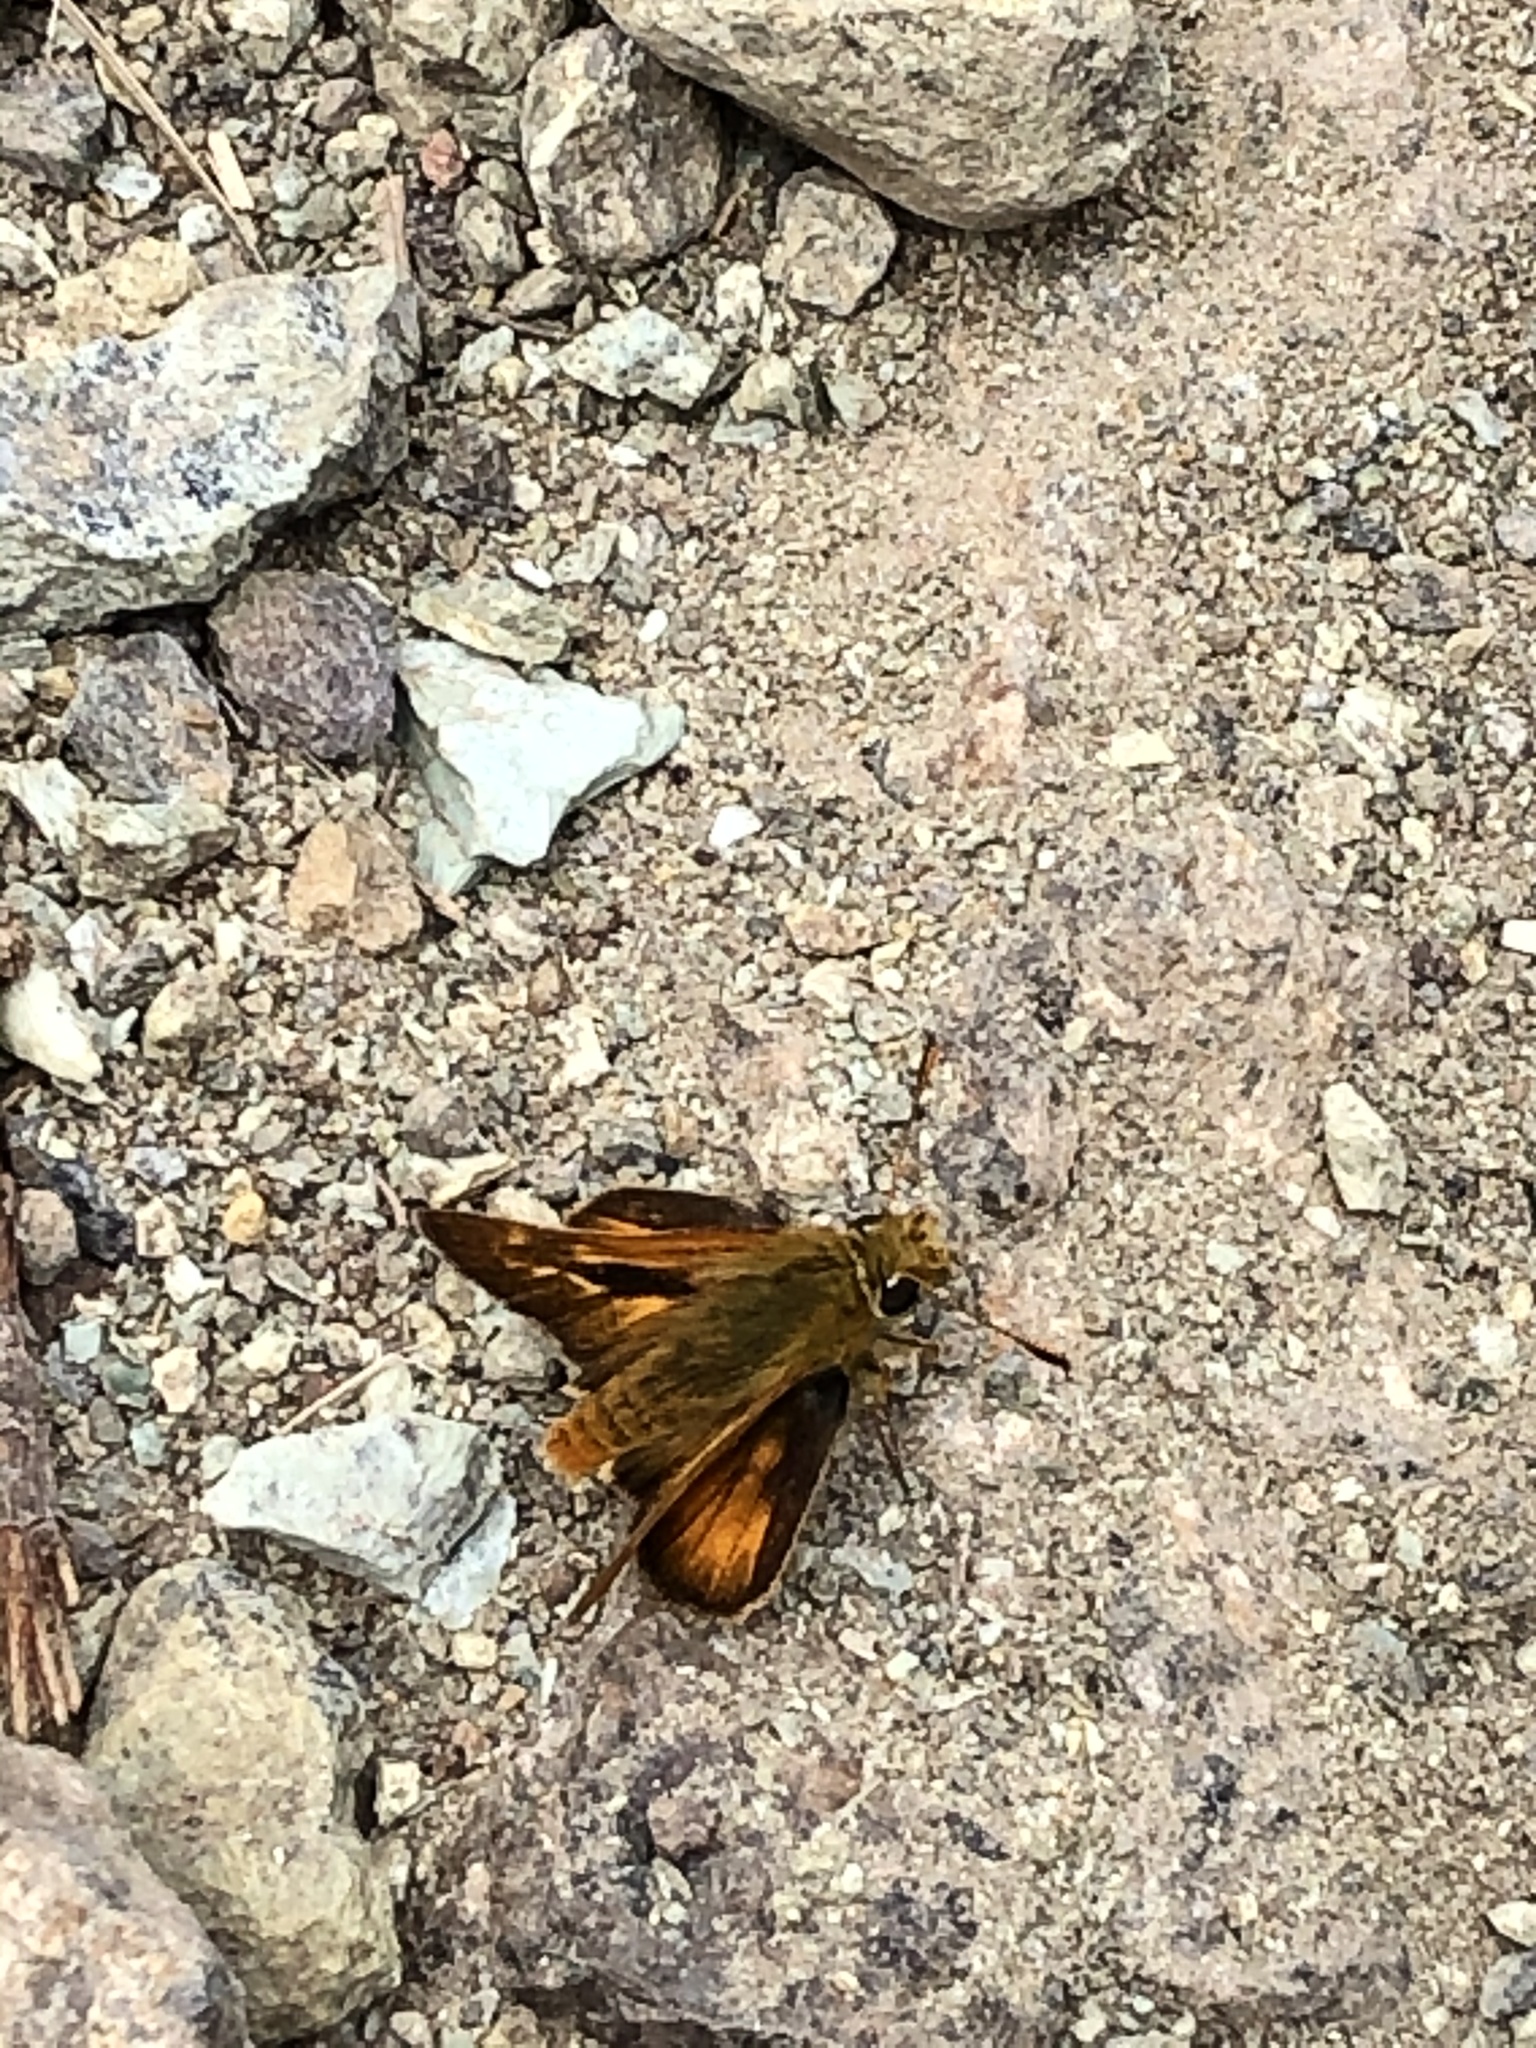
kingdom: Animalia
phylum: Arthropoda
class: Insecta
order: Lepidoptera
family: Hesperiidae
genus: Ochlodes
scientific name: Ochlodes agricola
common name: Rural skipper
